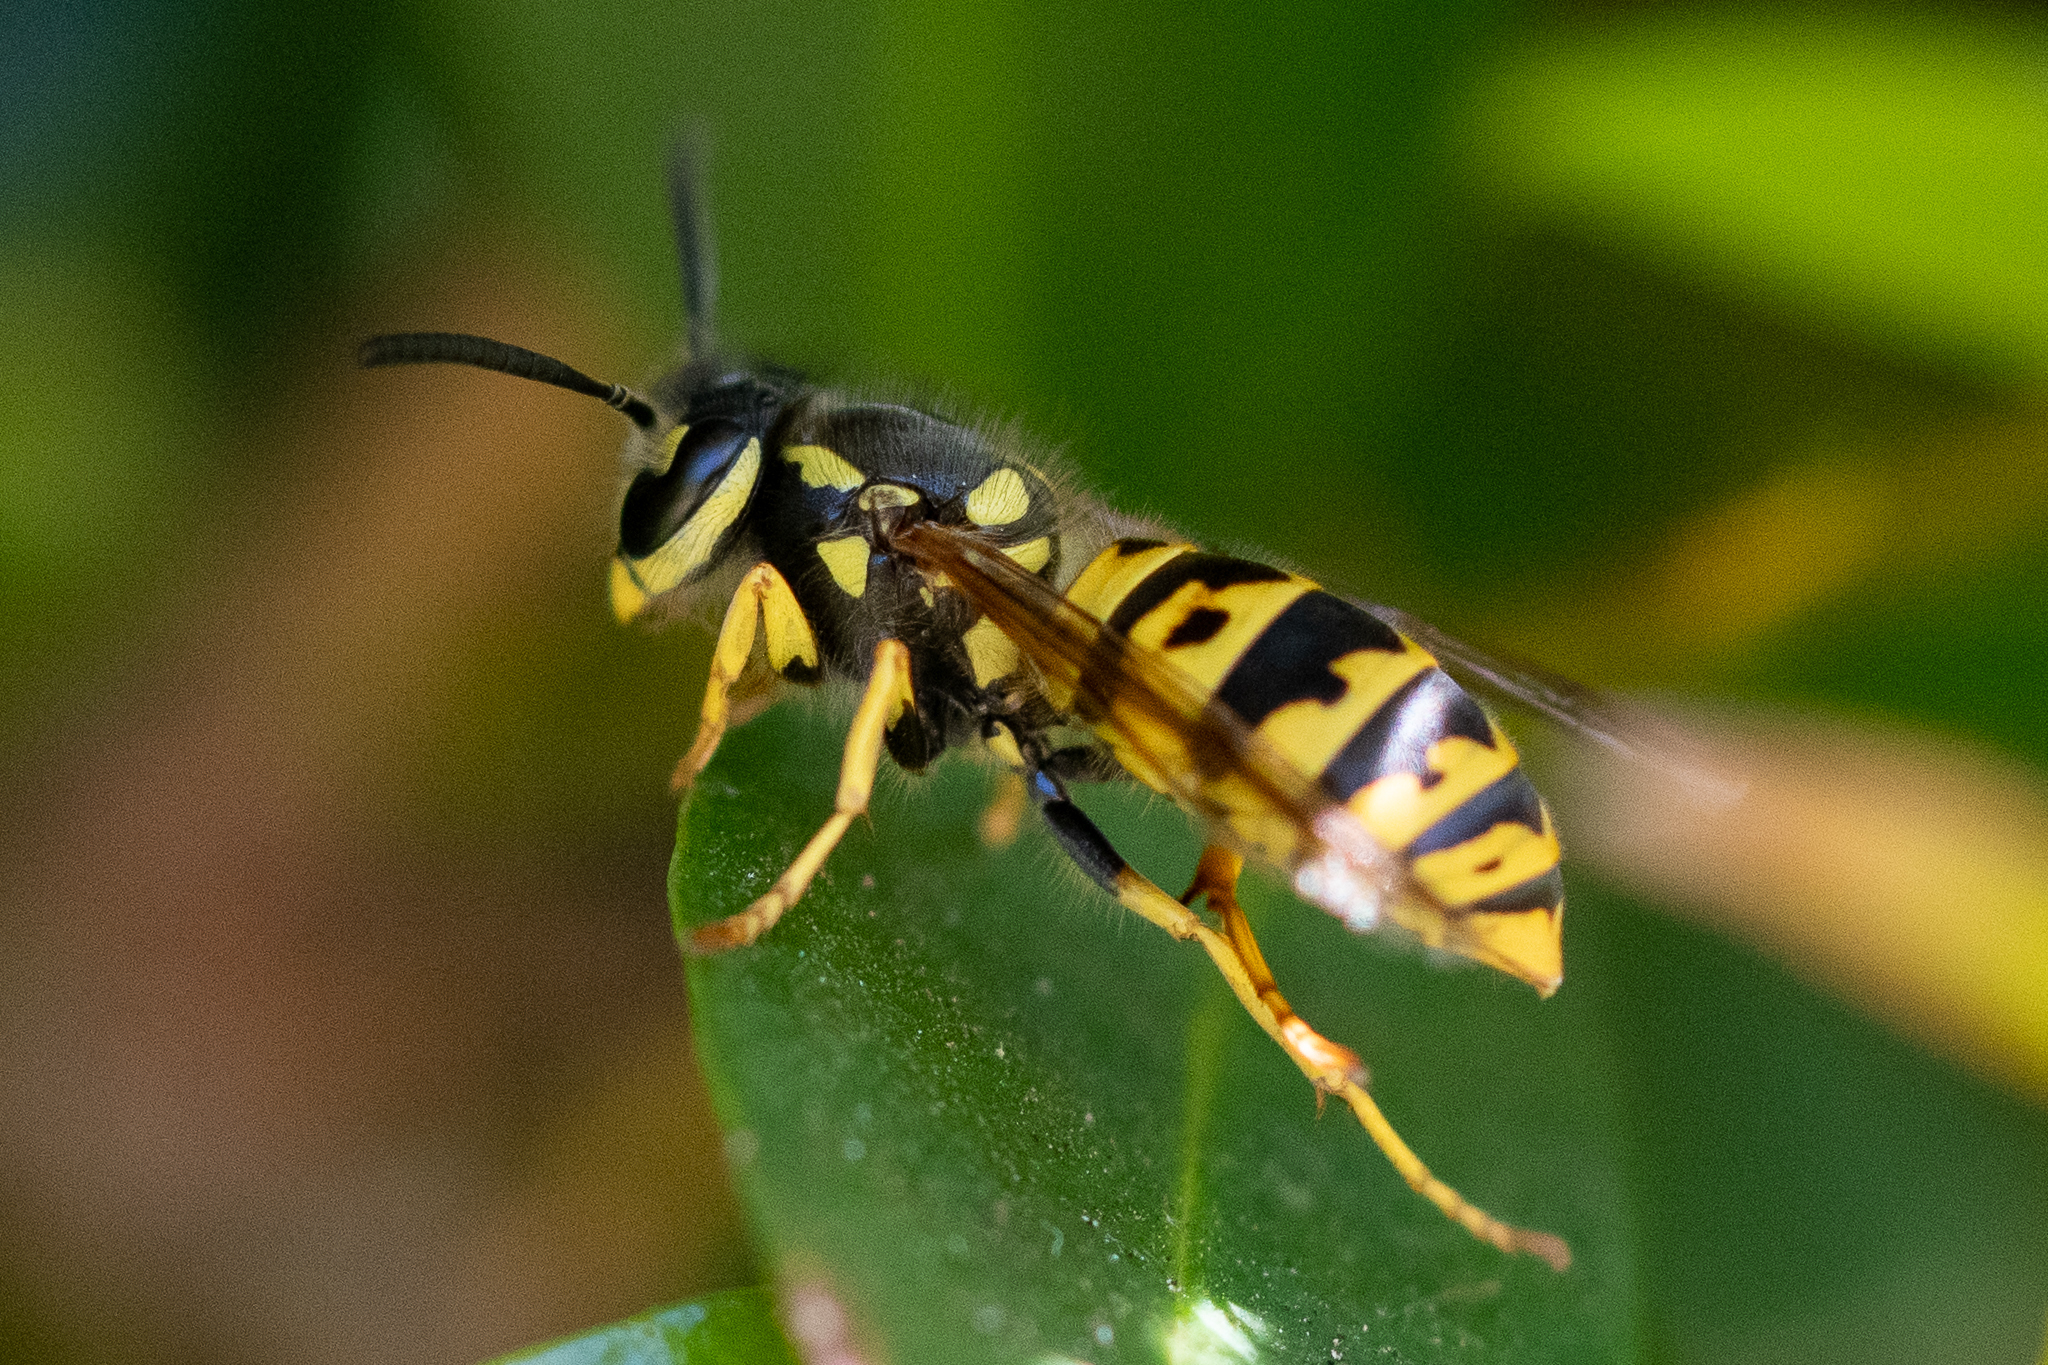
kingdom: Animalia
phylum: Arthropoda
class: Insecta
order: Hymenoptera
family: Vespidae
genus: Vespula
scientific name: Vespula germanica
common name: German wasp
